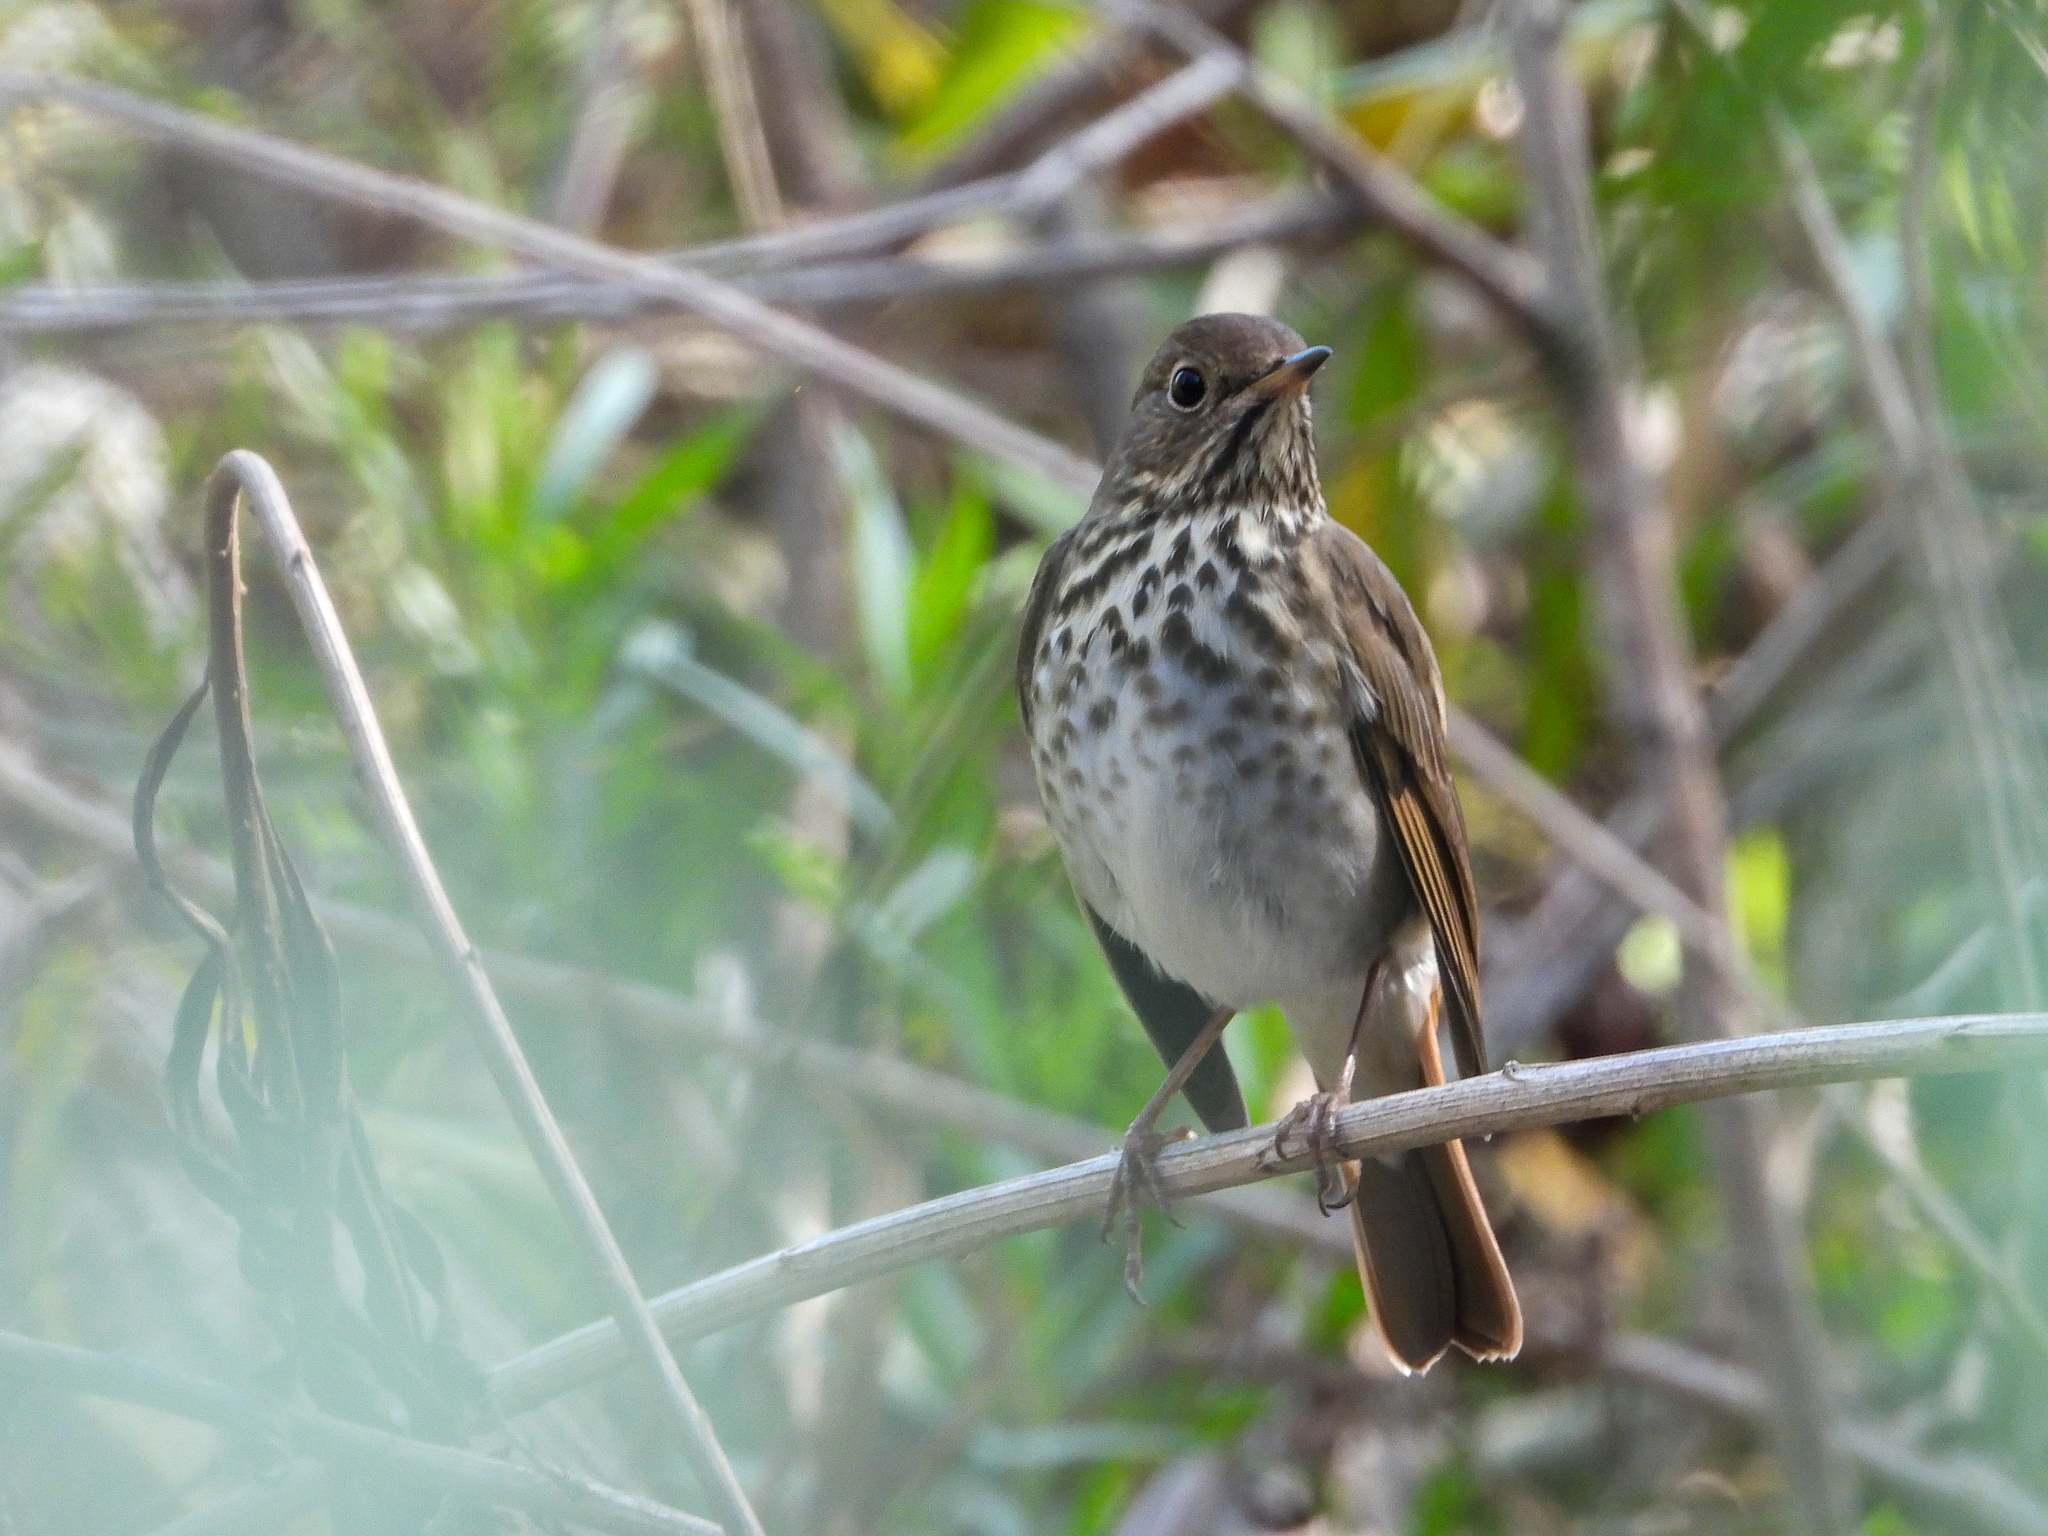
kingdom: Animalia
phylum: Chordata
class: Aves
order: Passeriformes
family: Turdidae
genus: Catharus
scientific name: Catharus guttatus
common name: Hermit thrush
